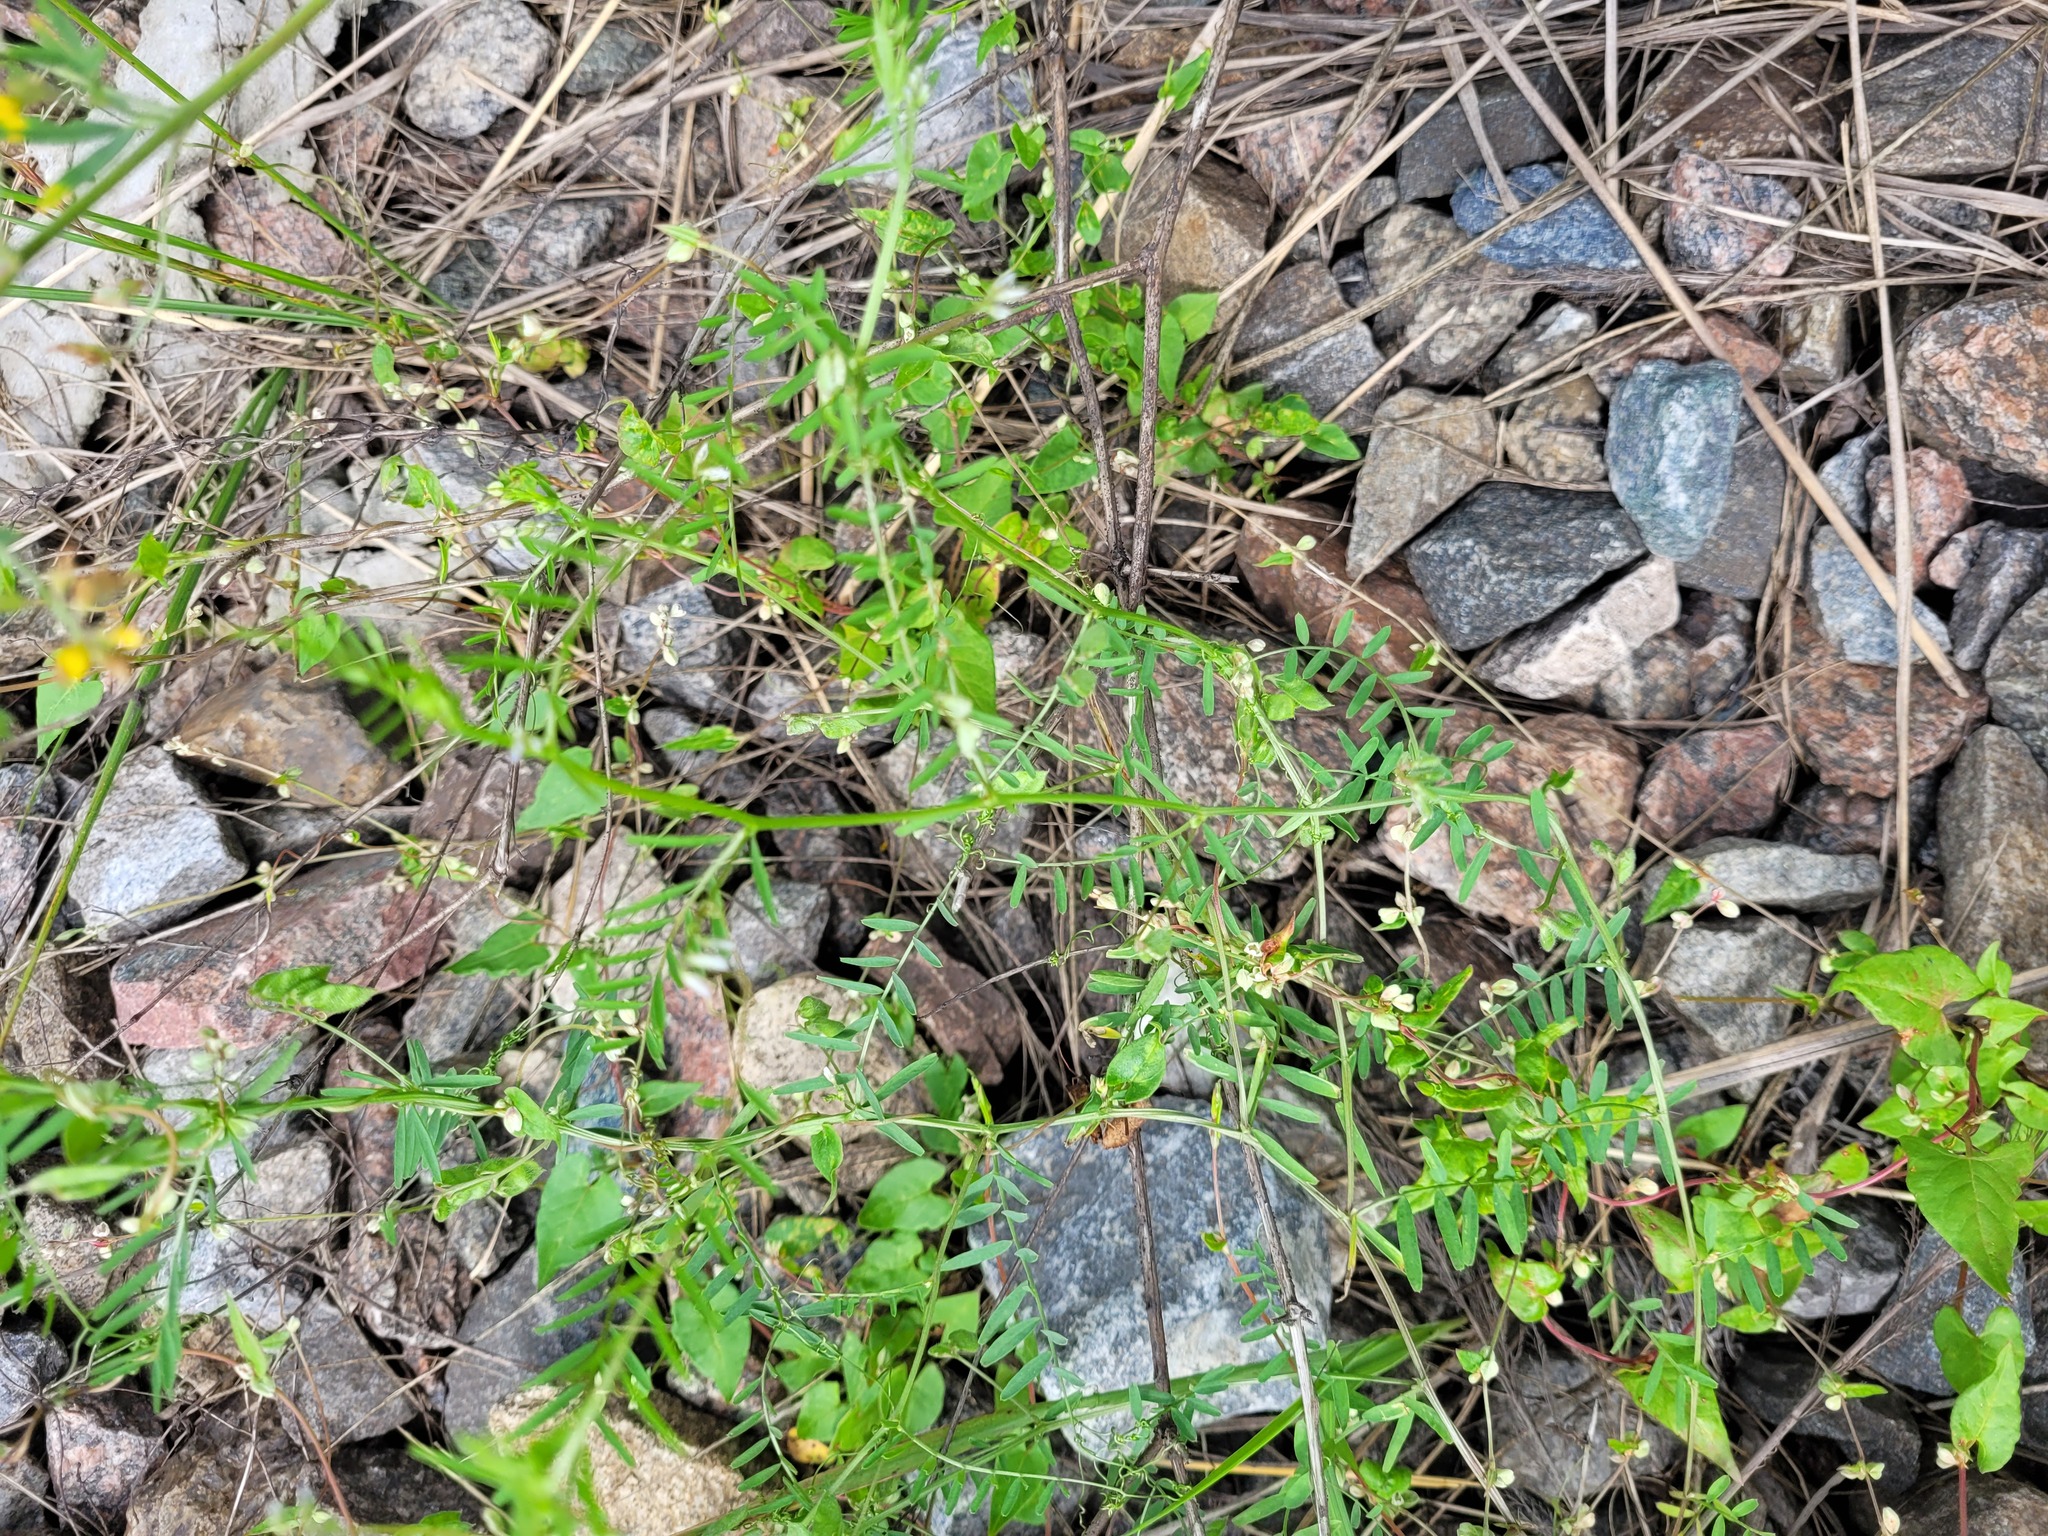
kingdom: Plantae
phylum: Tracheophyta
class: Magnoliopsida
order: Fabales
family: Fabaceae
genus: Vicia
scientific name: Vicia hirsuta
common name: Tiny vetch
